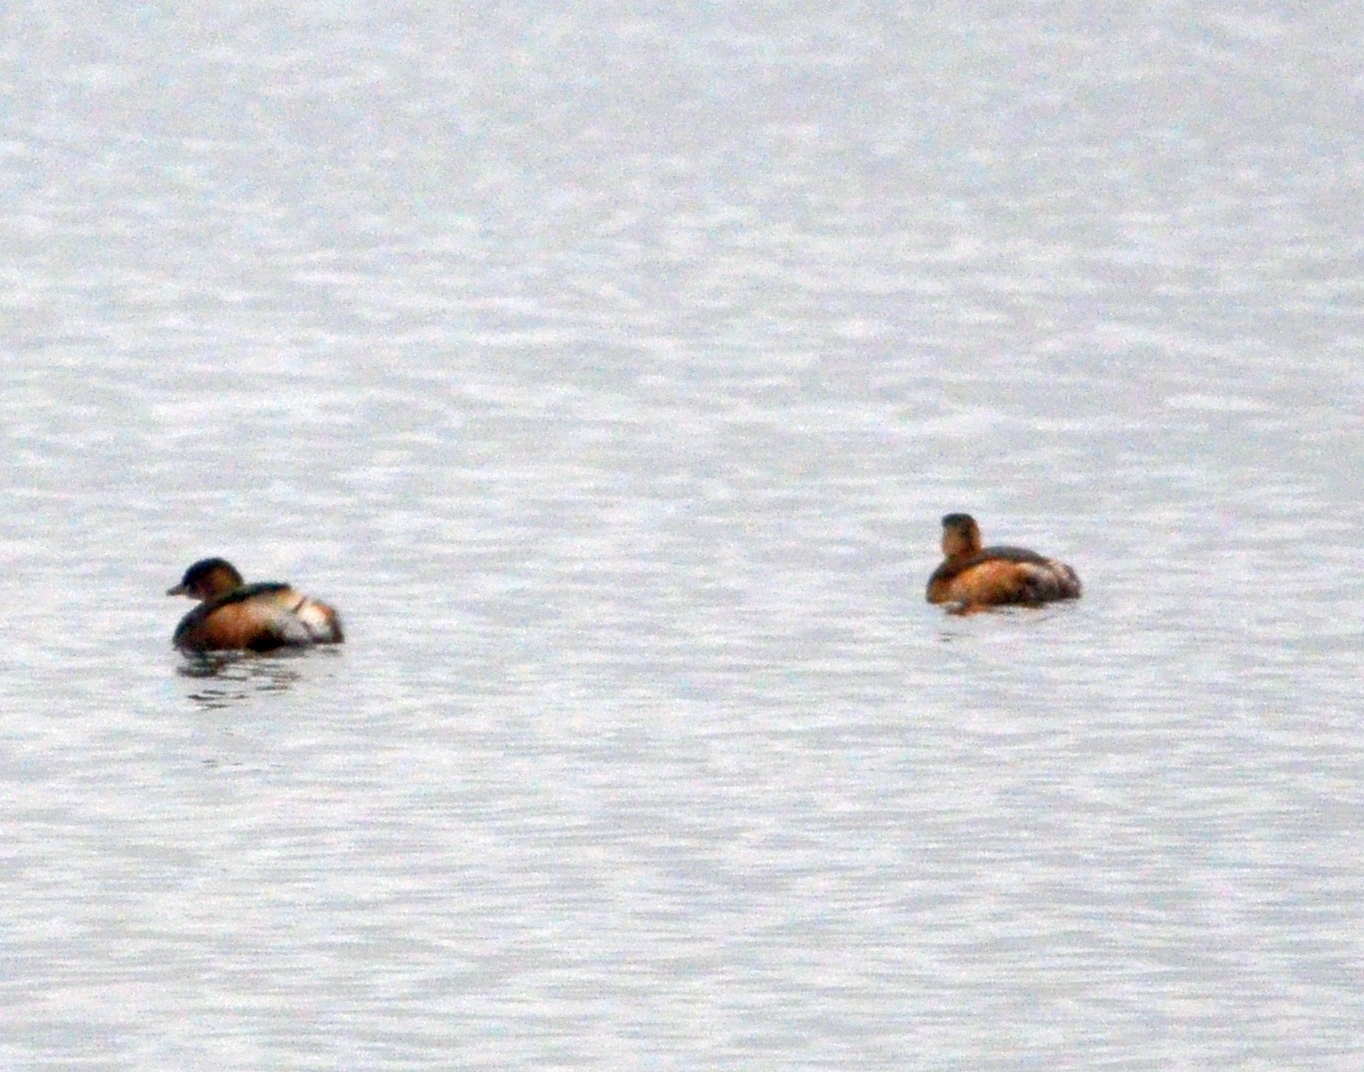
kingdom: Animalia
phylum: Chordata
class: Aves
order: Podicipediformes
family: Podicipedidae
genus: Tachybaptus
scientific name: Tachybaptus ruficollis
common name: Little grebe
